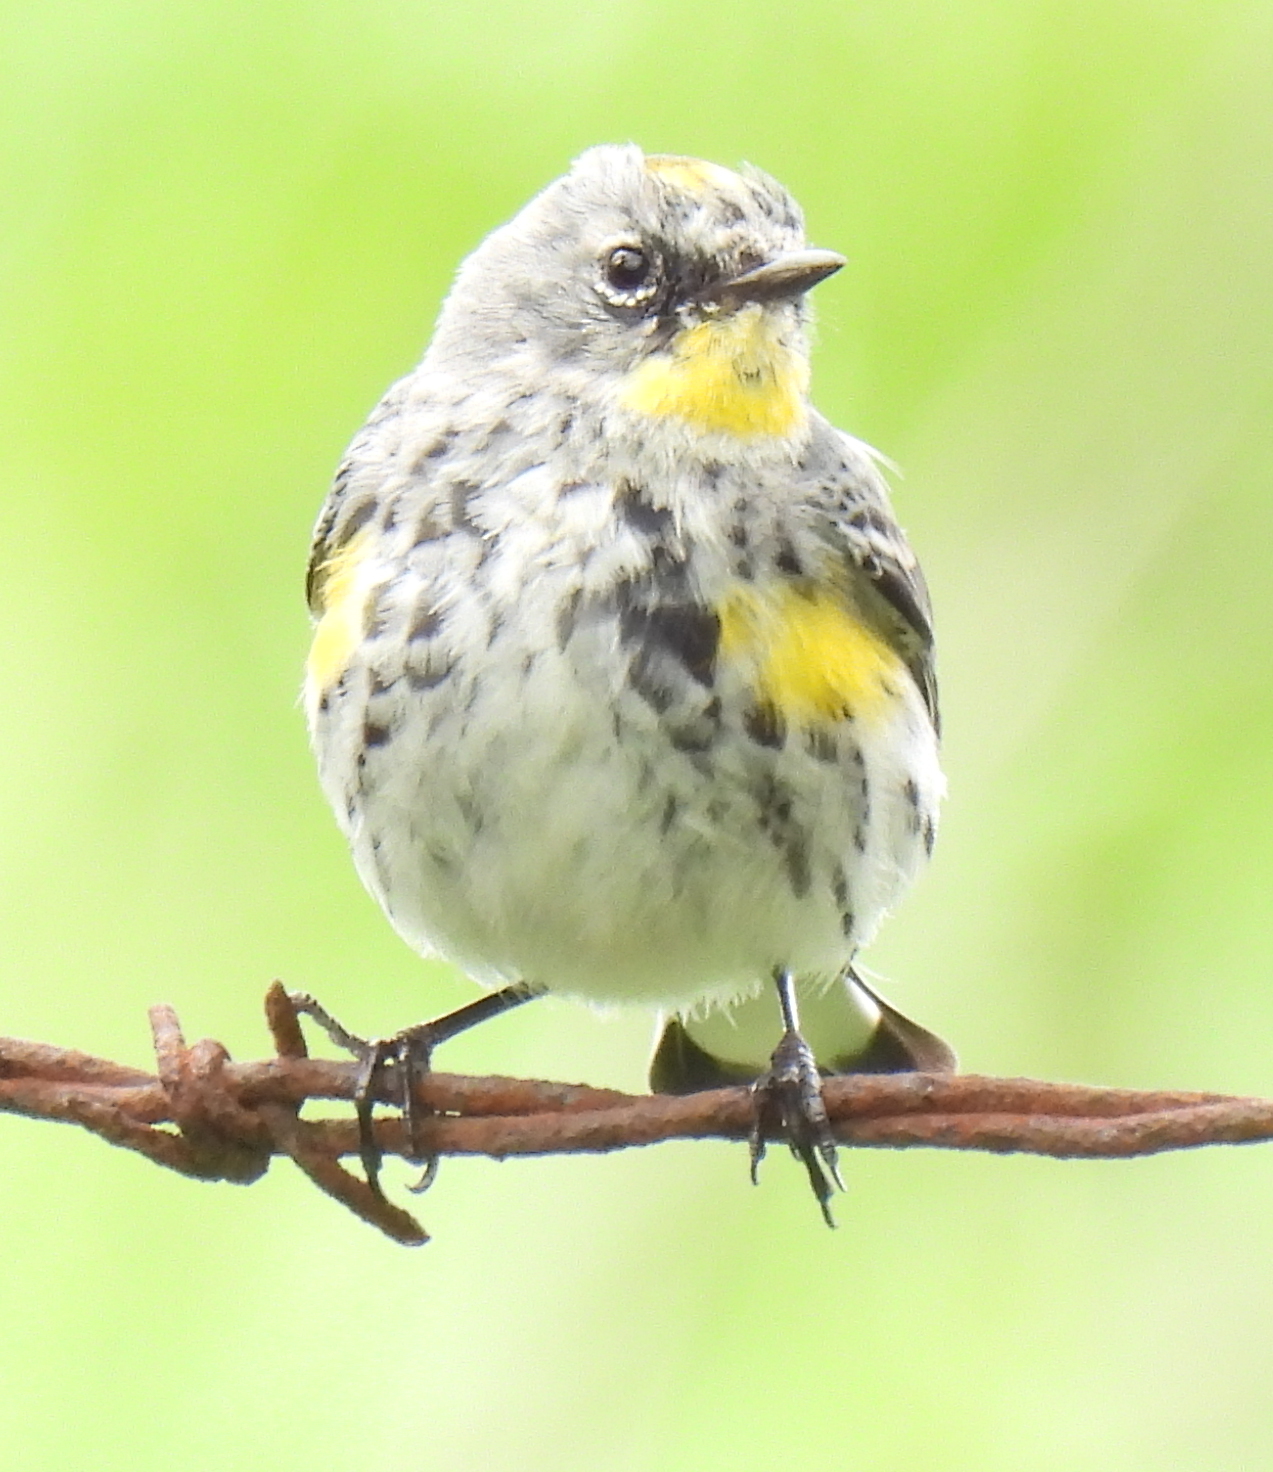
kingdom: Animalia
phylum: Chordata
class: Aves
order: Passeriformes
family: Parulidae
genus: Setophaga
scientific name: Setophaga coronata
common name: Myrtle warbler
